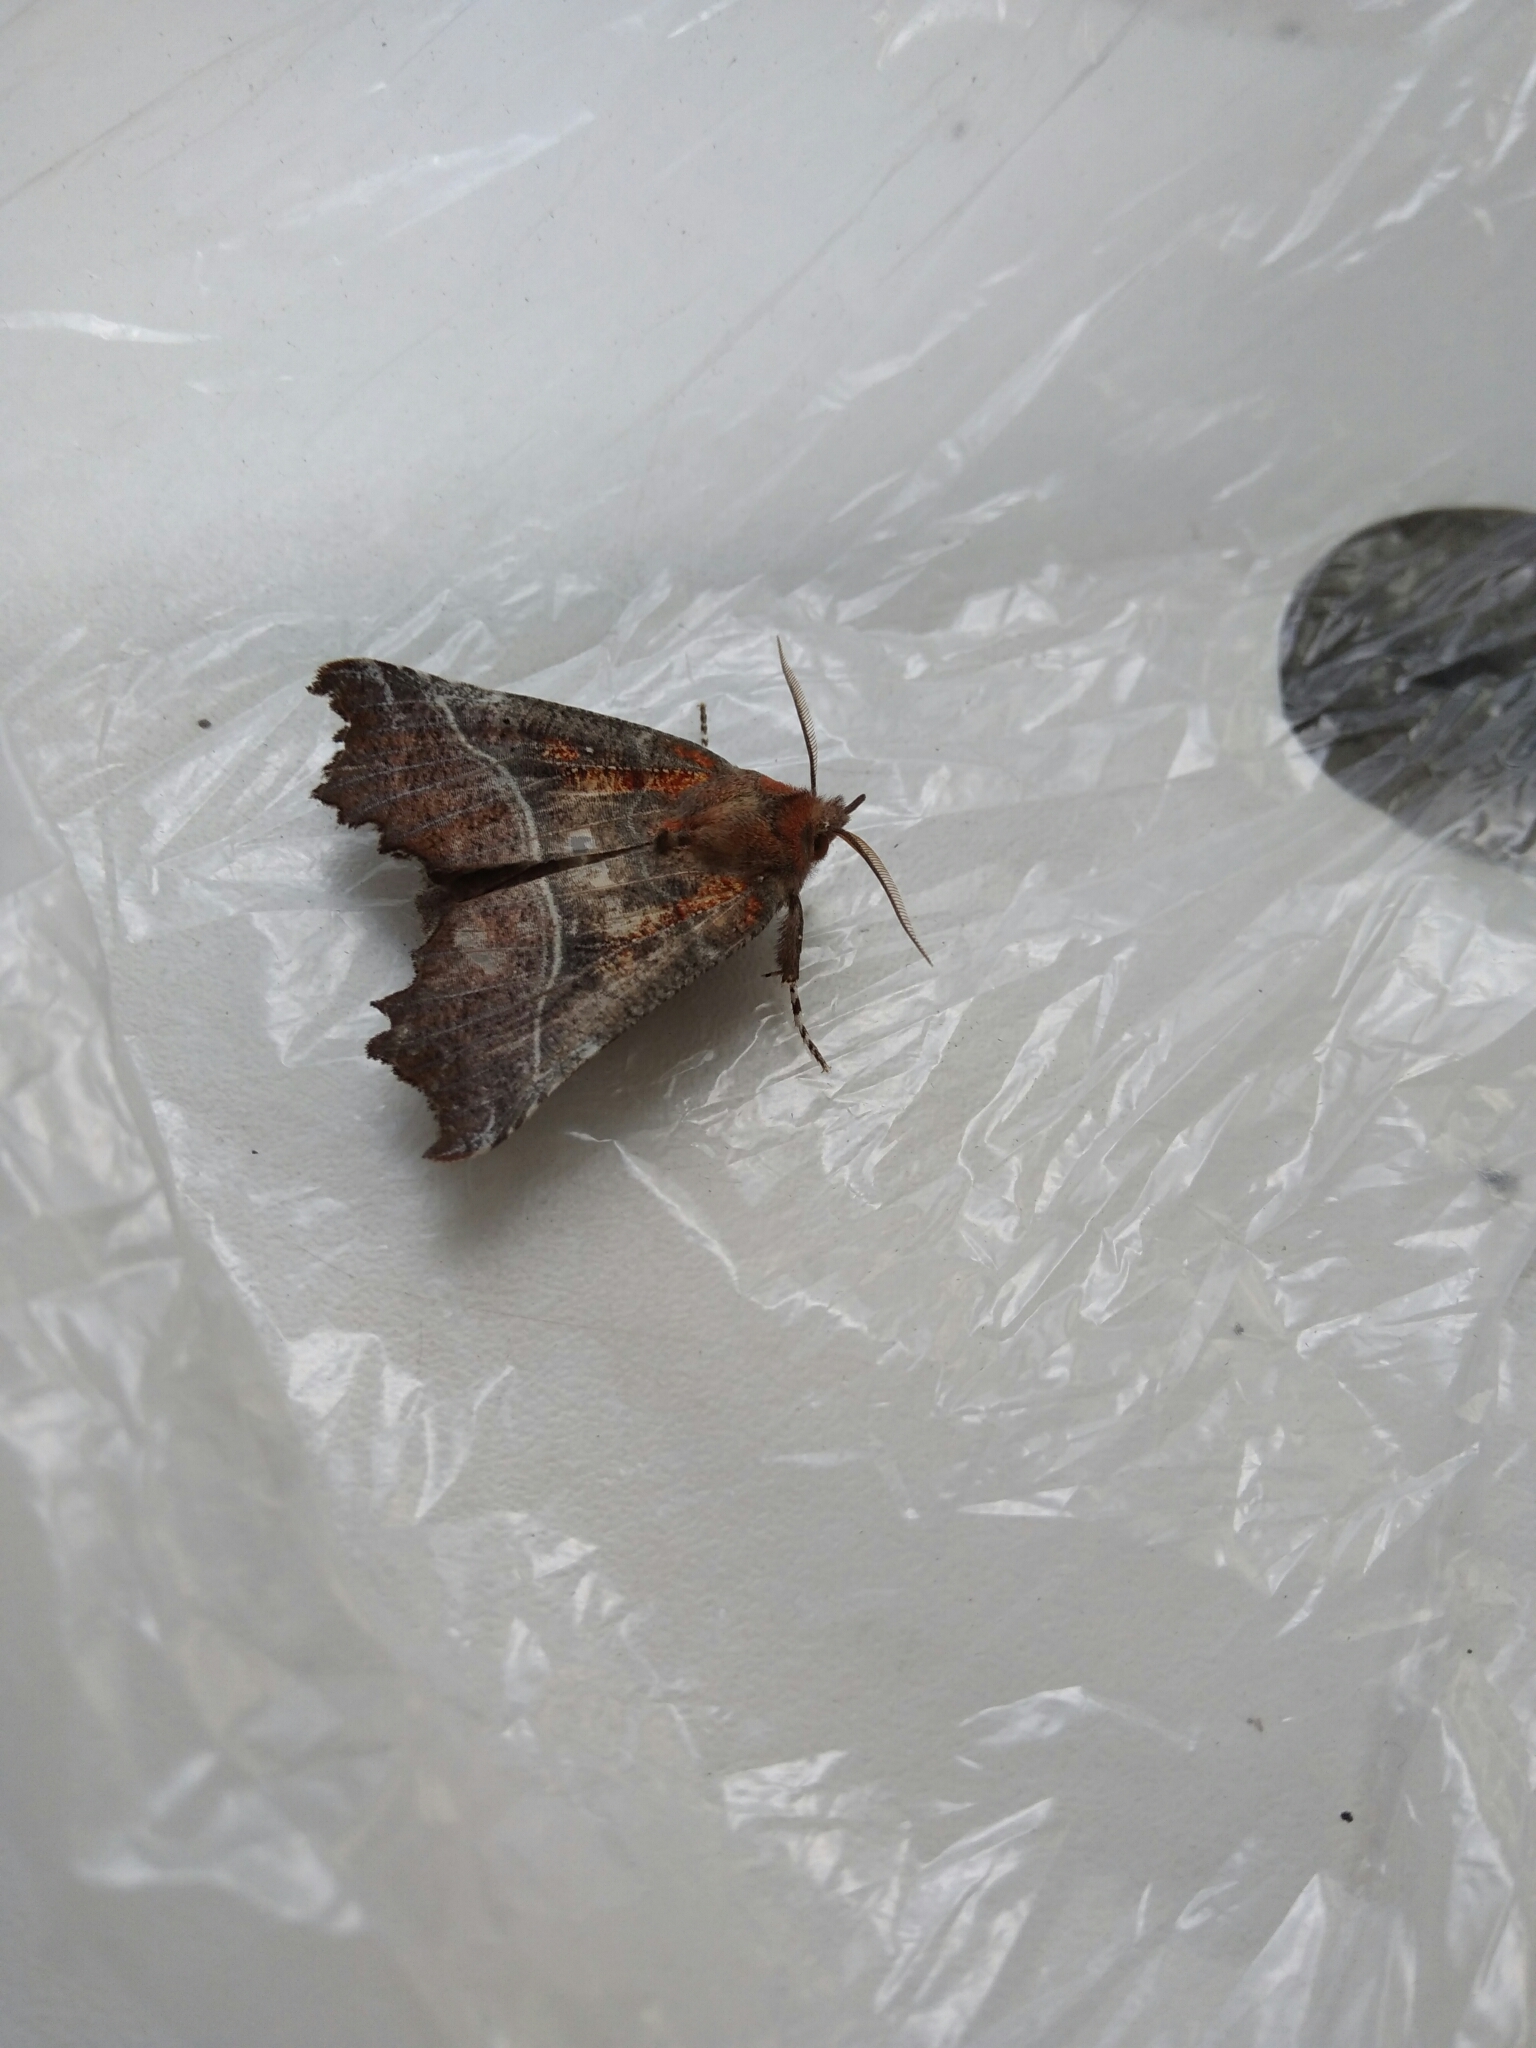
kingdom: Animalia
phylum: Arthropoda
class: Insecta
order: Lepidoptera
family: Erebidae
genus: Scoliopteryx
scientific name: Scoliopteryx libatrix
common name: Herald
